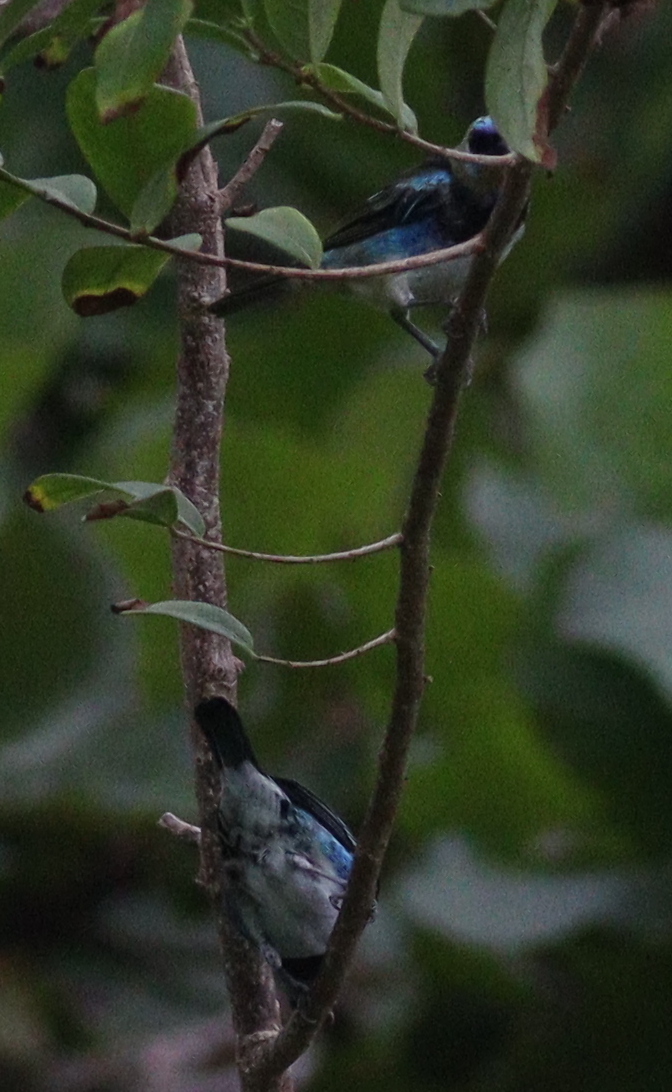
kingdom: Animalia
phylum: Chordata
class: Aves
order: Passeriformes
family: Thraupidae
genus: Stilpnia
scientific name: Stilpnia larvata
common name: Golden-hooded tanager
